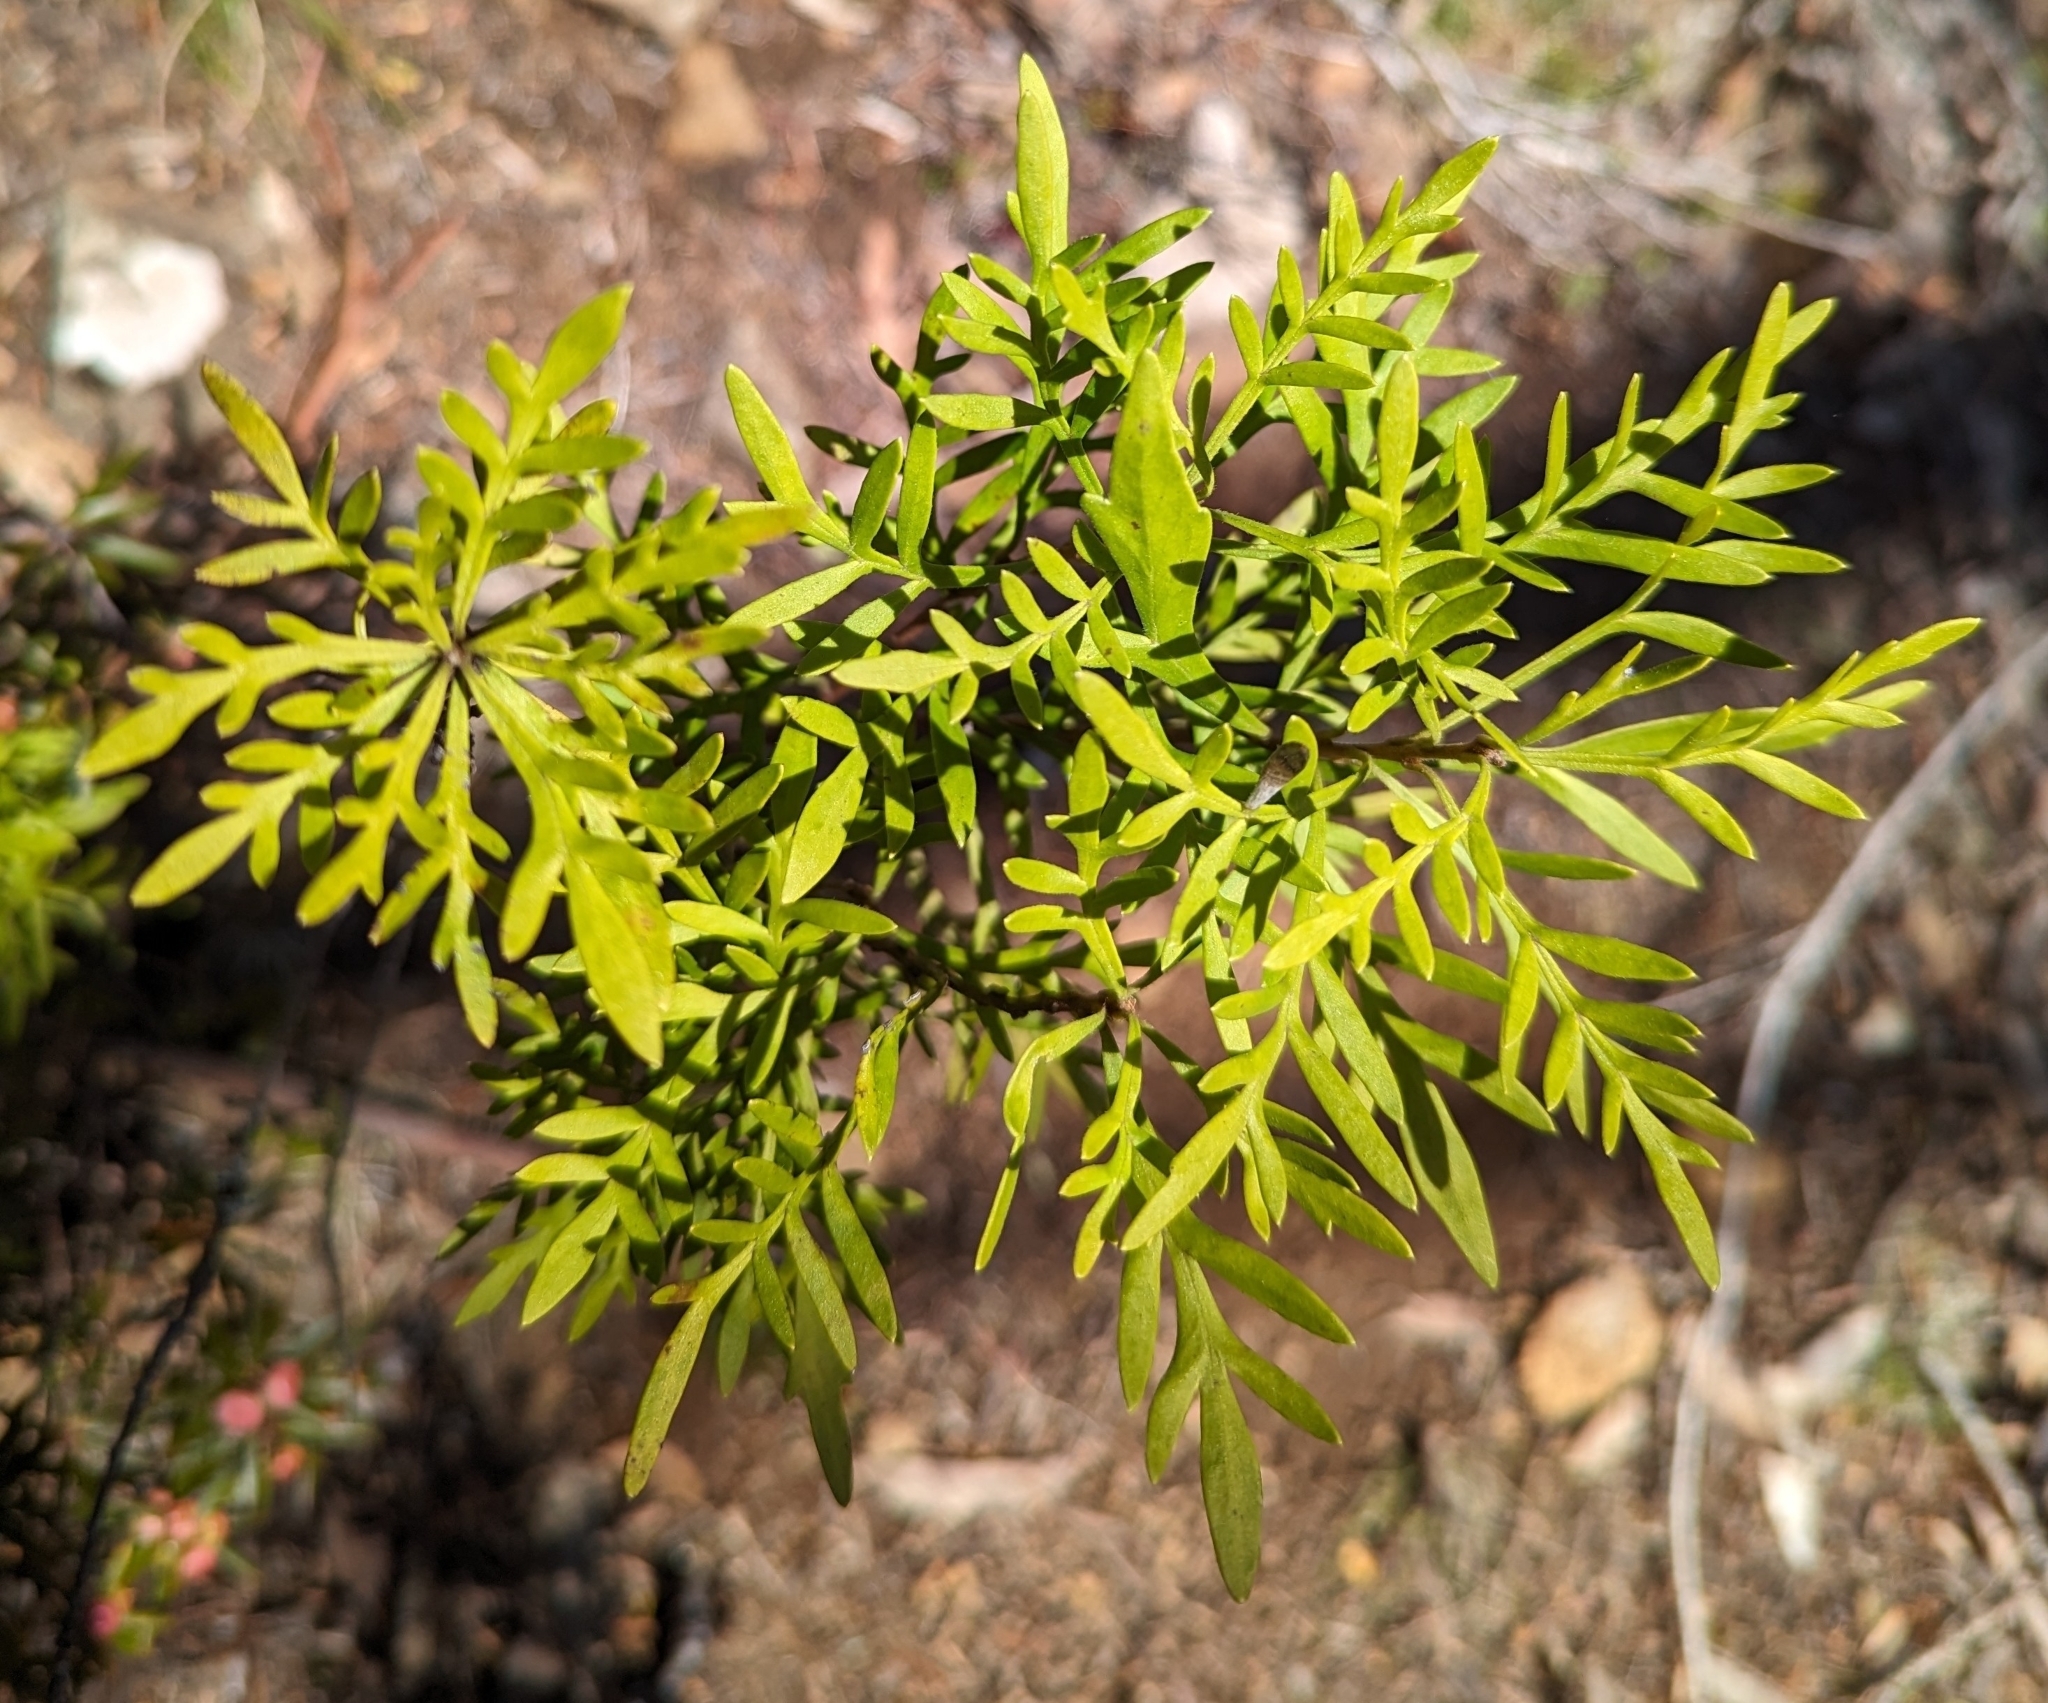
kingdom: Plantae
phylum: Tracheophyta
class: Magnoliopsida
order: Proteales
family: Proteaceae
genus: Lomatia
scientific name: Lomatia tinctoria
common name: Guitar plant
